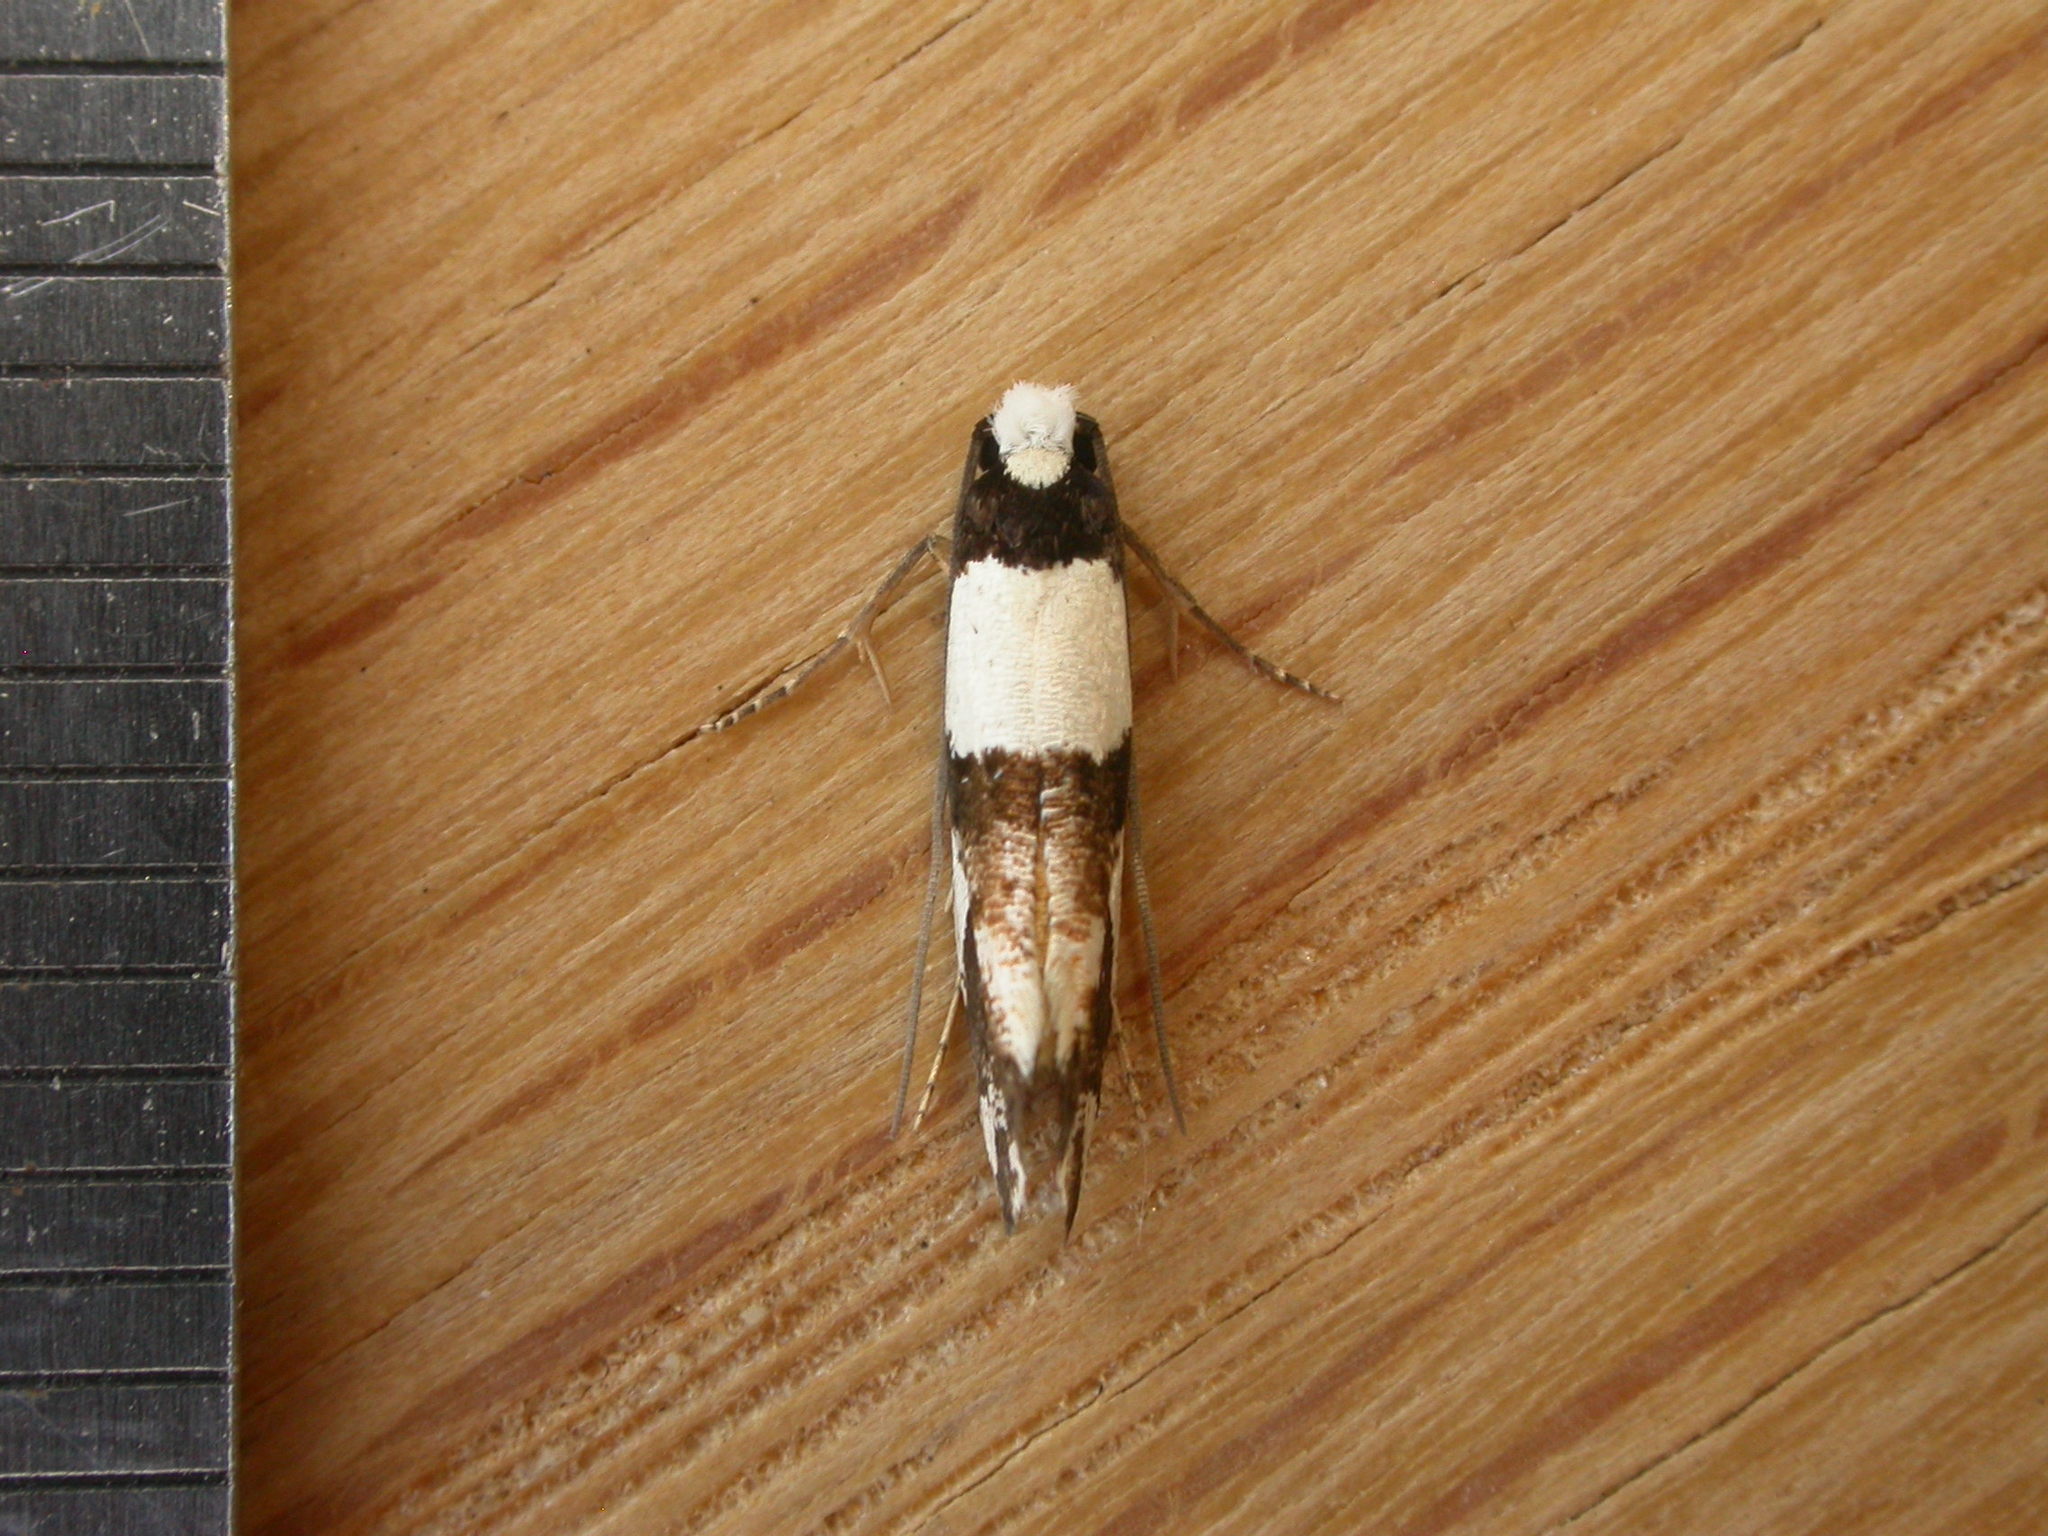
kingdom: Animalia
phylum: Arthropoda
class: Insecta
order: Lepidoptera
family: Tineidae
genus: Monopis
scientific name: Monopis icterogastra
